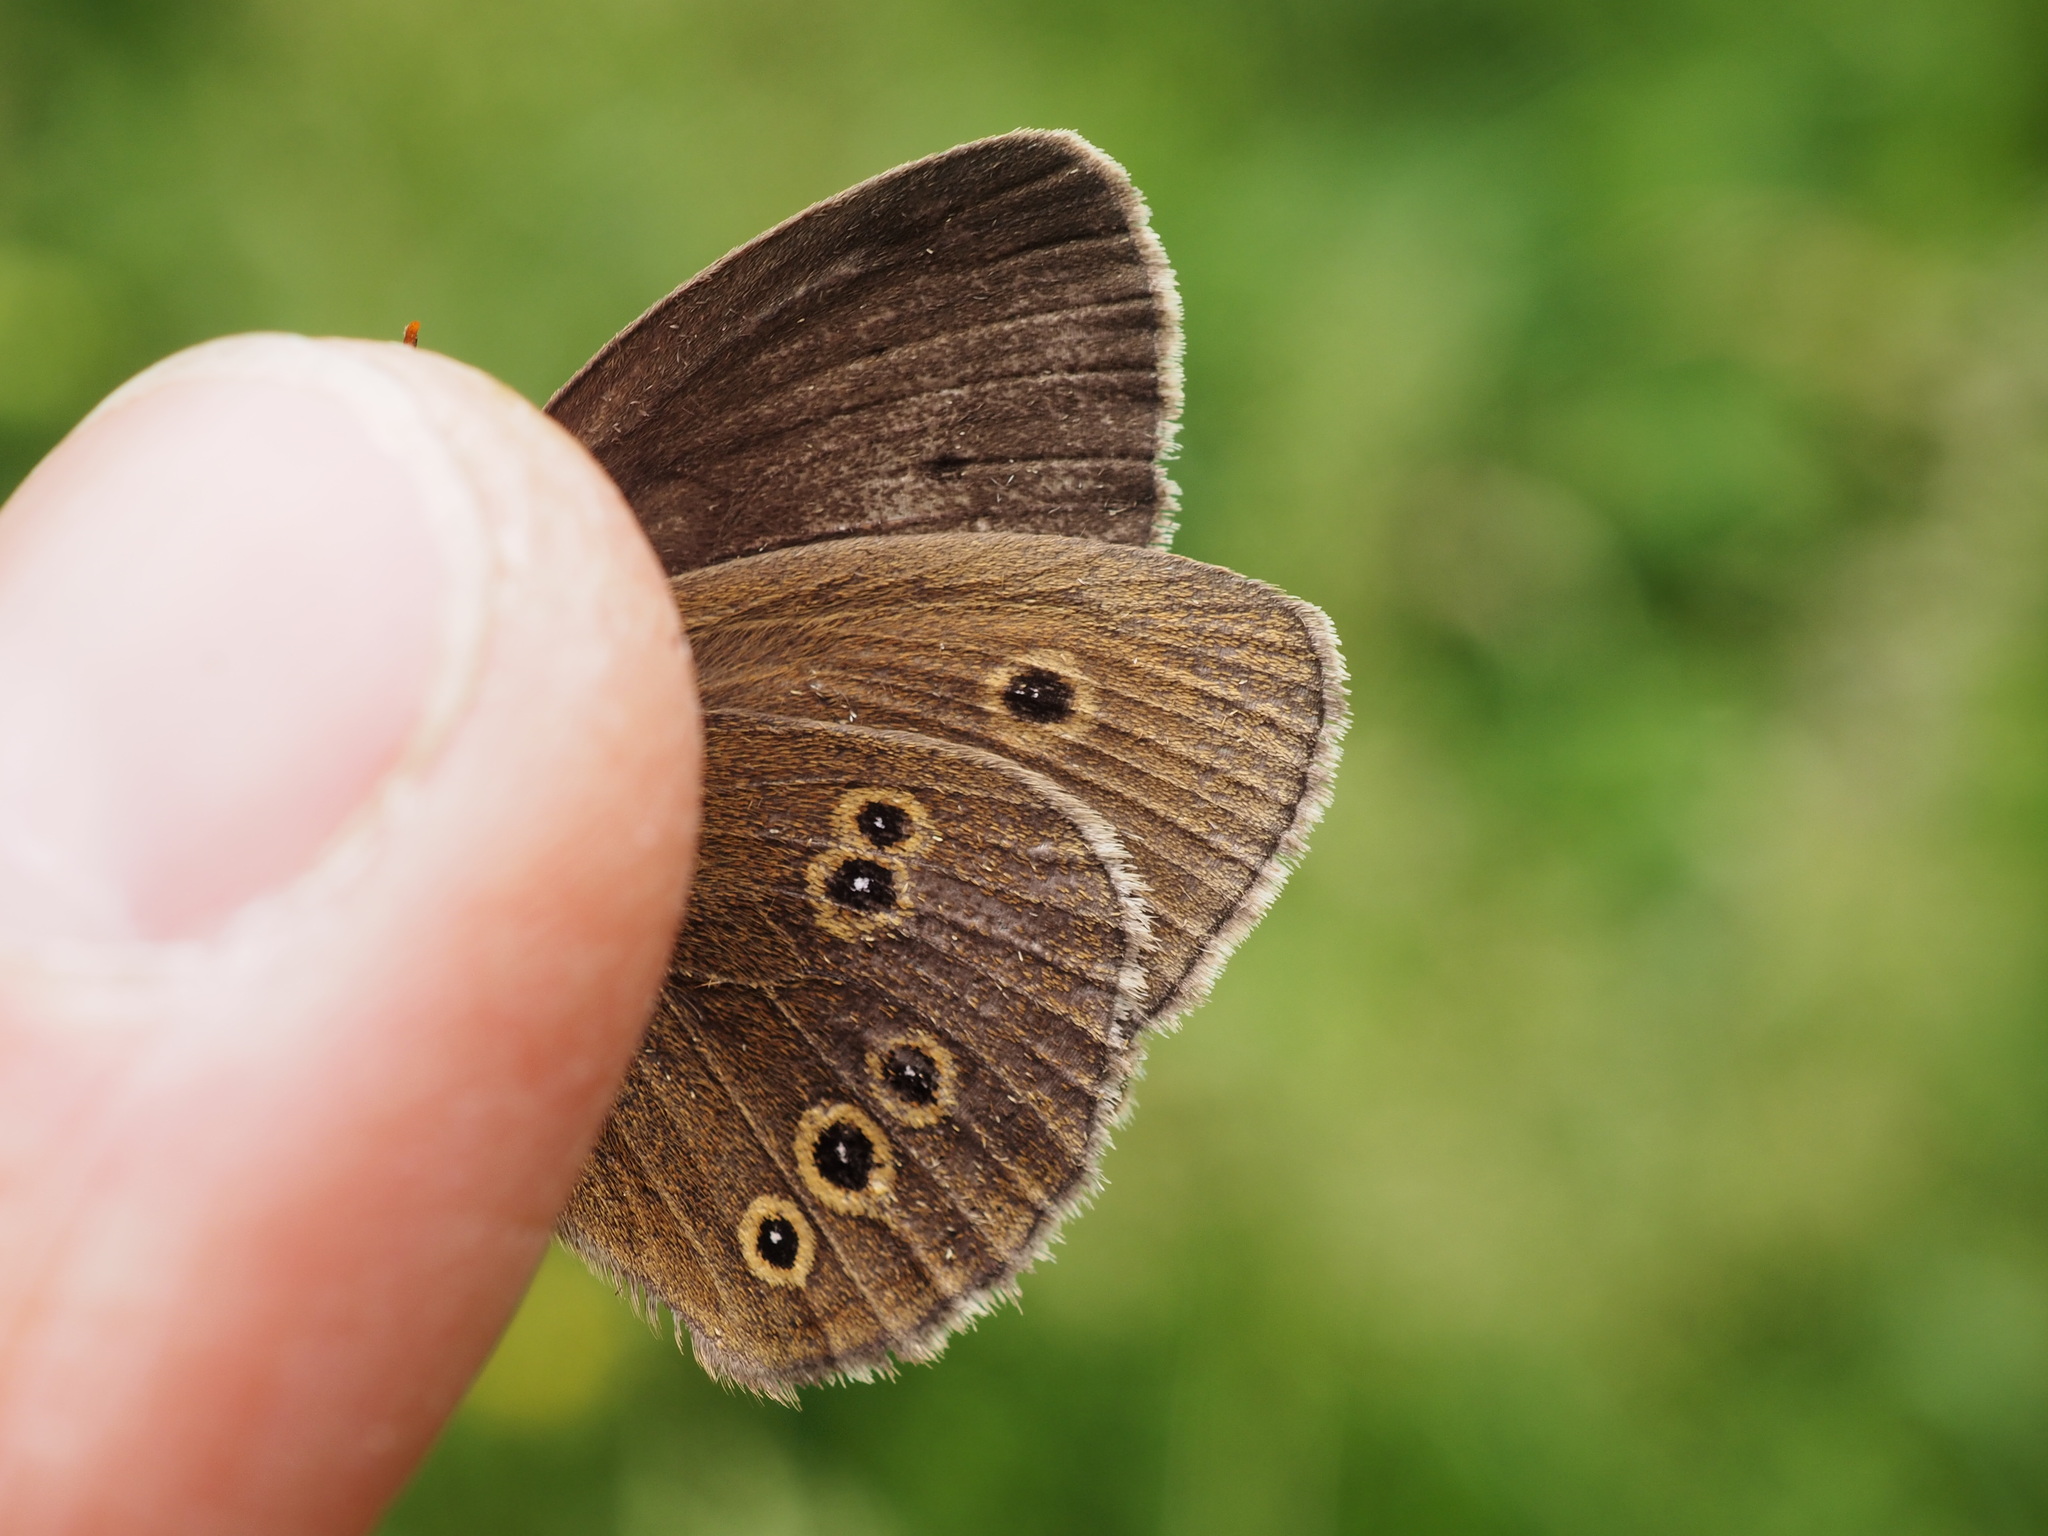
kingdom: Animalia
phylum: Arthropoda
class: Insecta
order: Lepidoptera
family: Nymphalidae
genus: Aphantopus
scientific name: Aphantopus hyperantus
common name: Ringlet
